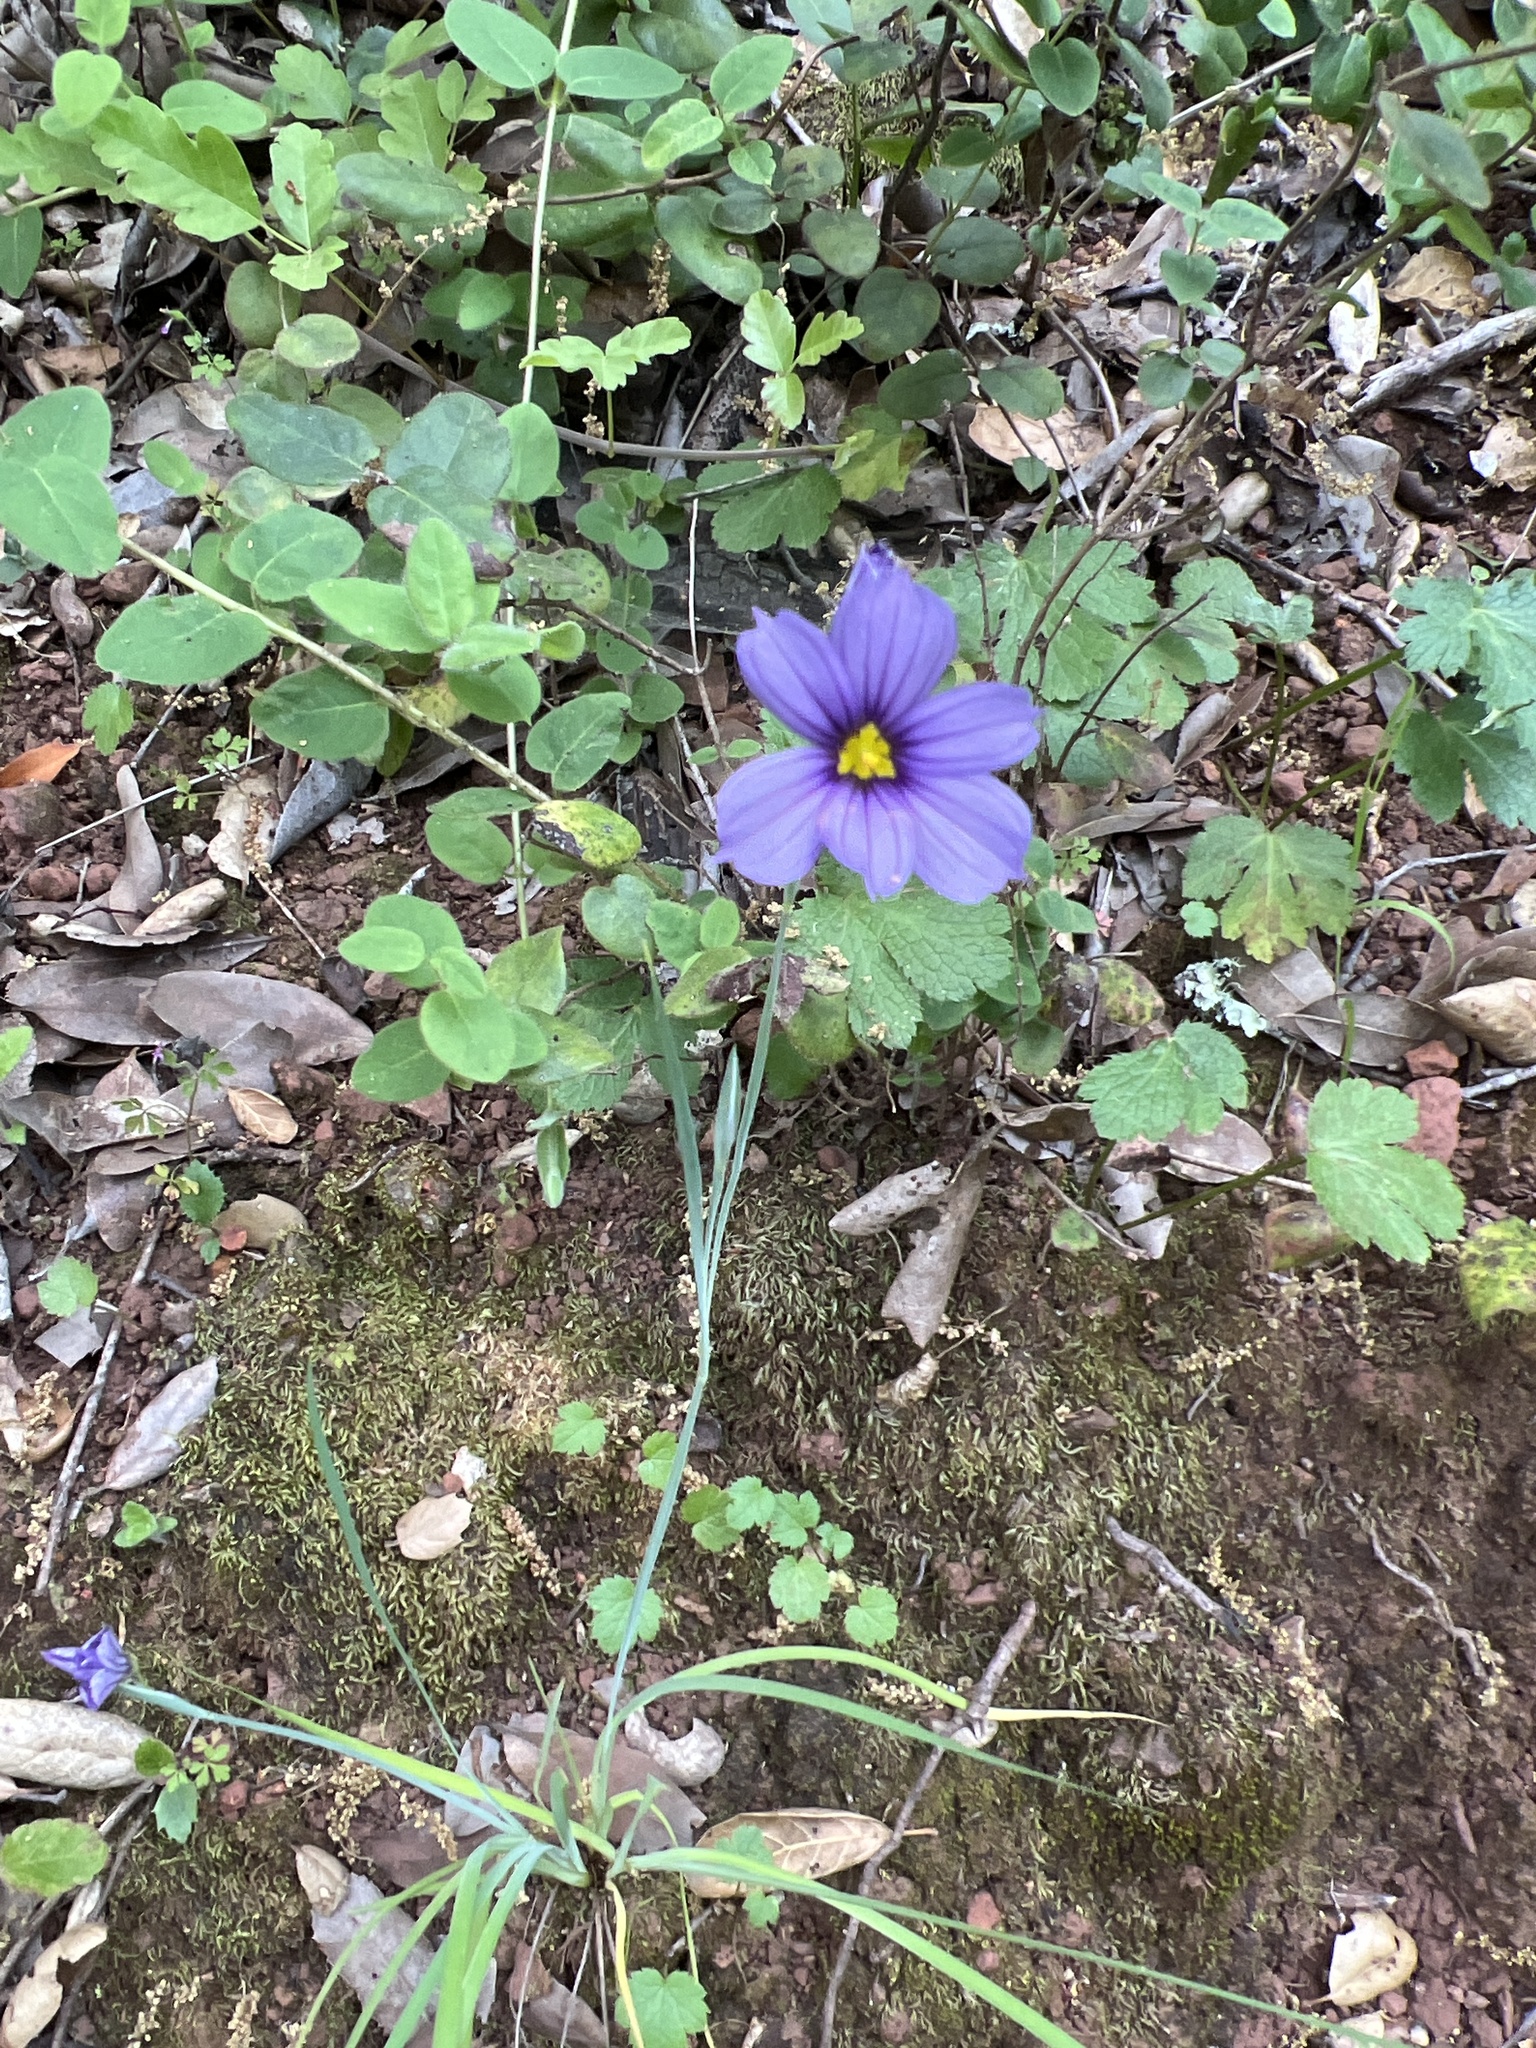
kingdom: Plantae
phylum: Tracheophyta
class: Liliopsida
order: Asparagales
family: Iridaceae
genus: Sisyrinchium
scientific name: Sisyrinchium bellum
